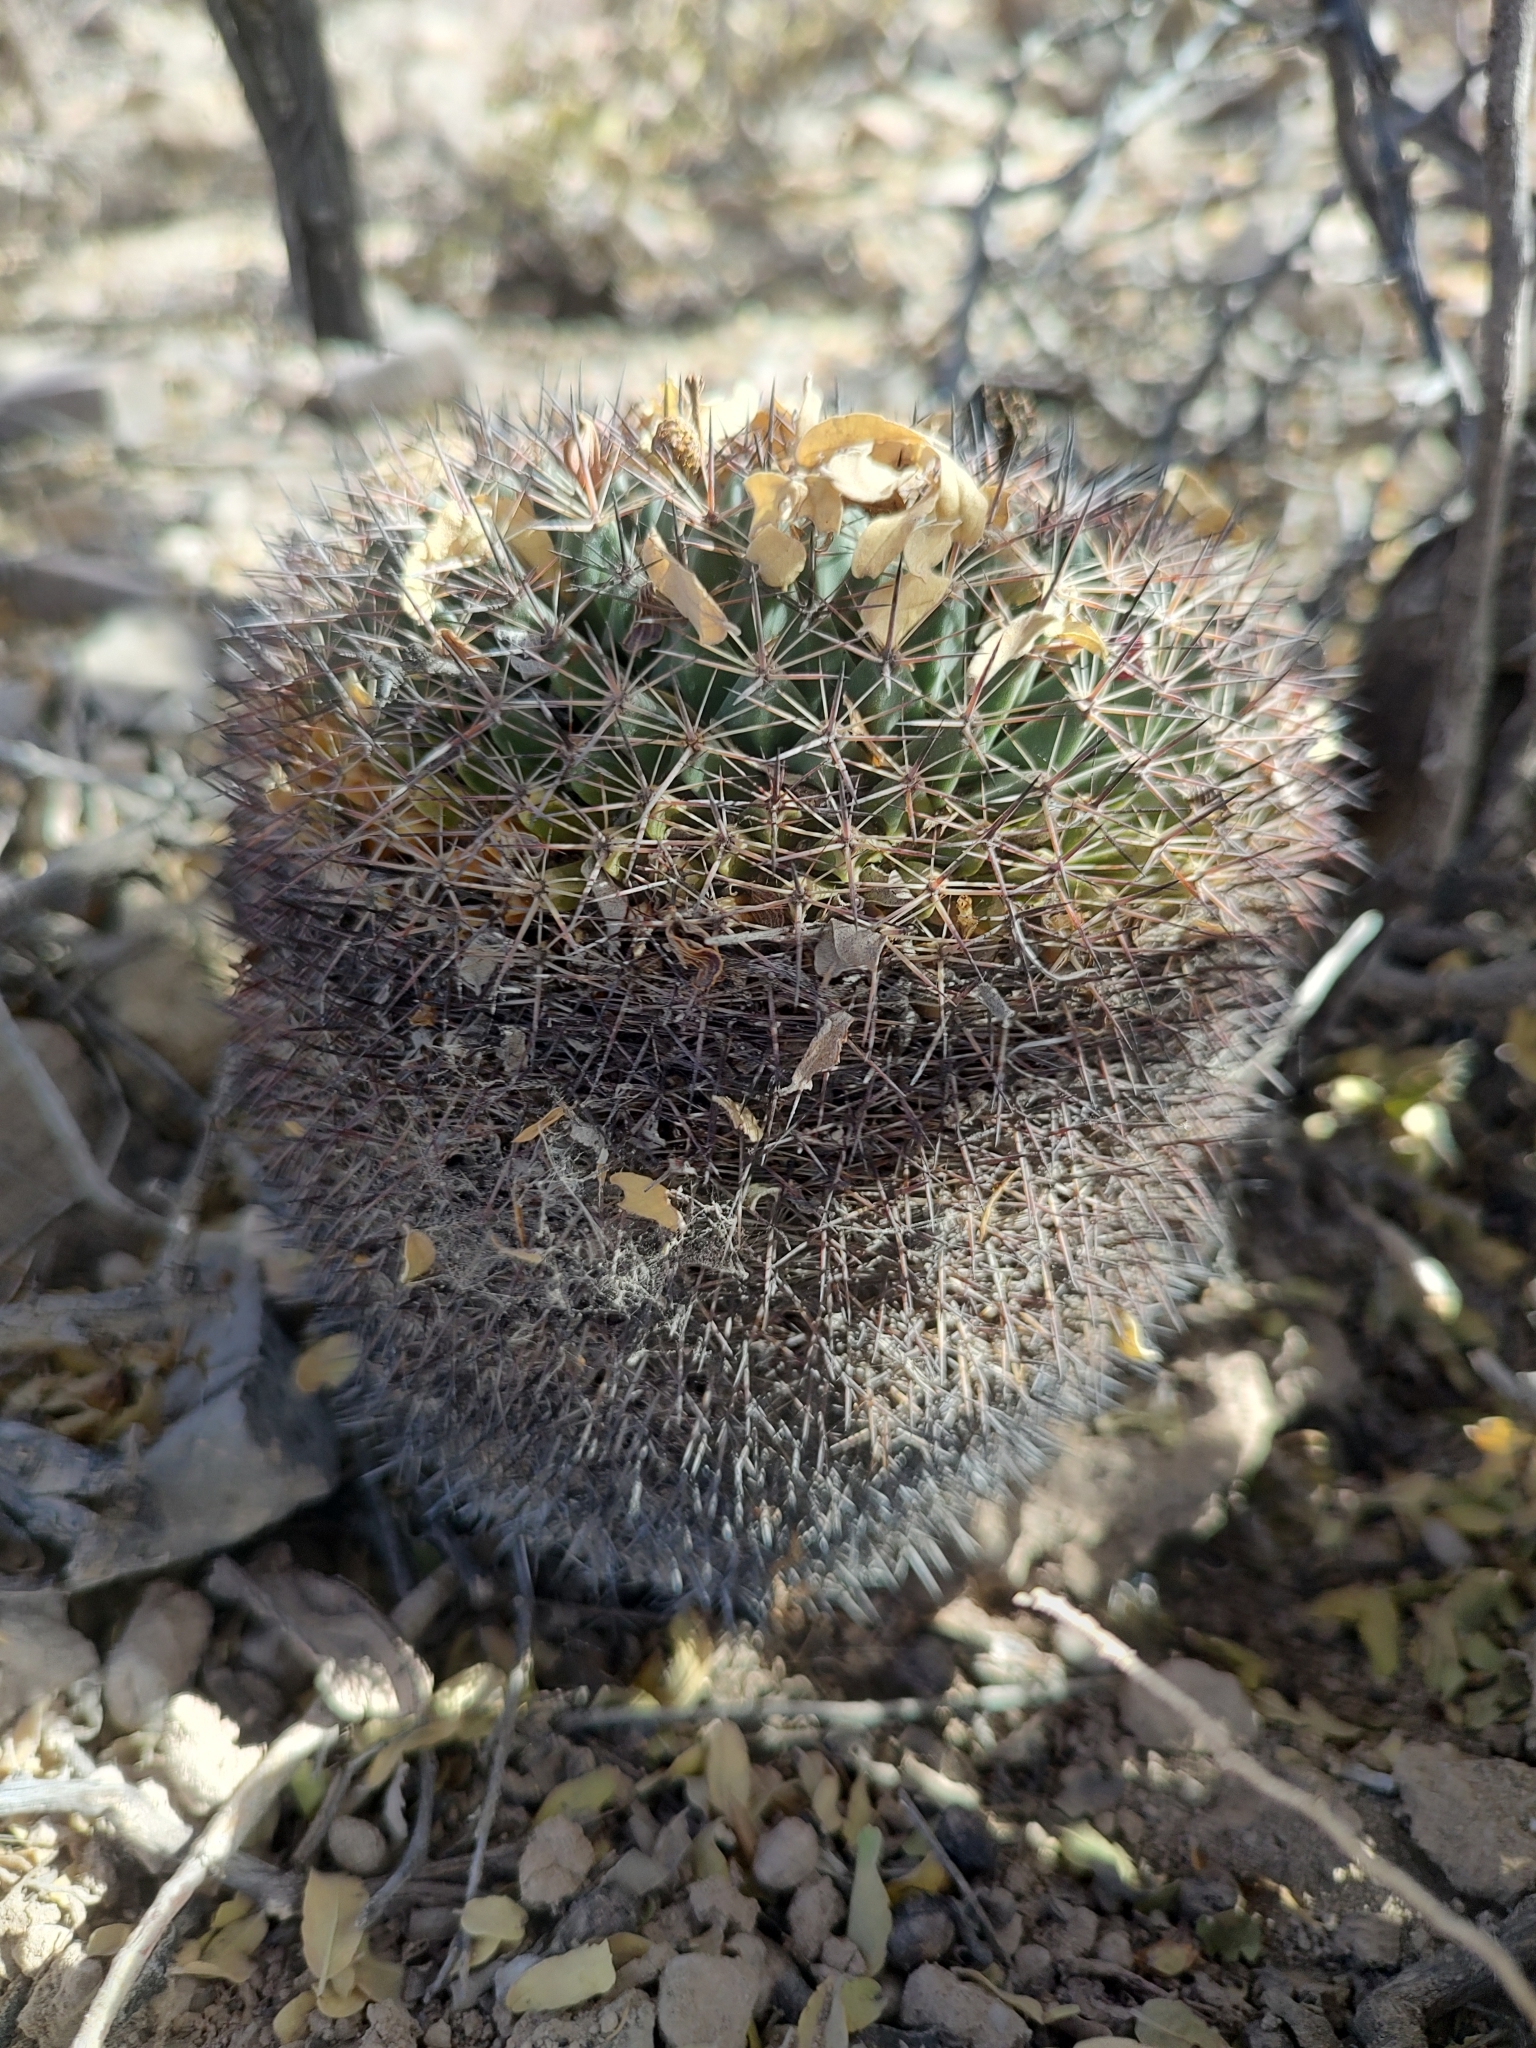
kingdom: Plantae
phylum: Tracheophyta
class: Magnoliopsida
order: Caryophyllales
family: Cactaceae
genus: Mammillaria
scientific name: Mammillaria heyderi
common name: Little nipple cactus
